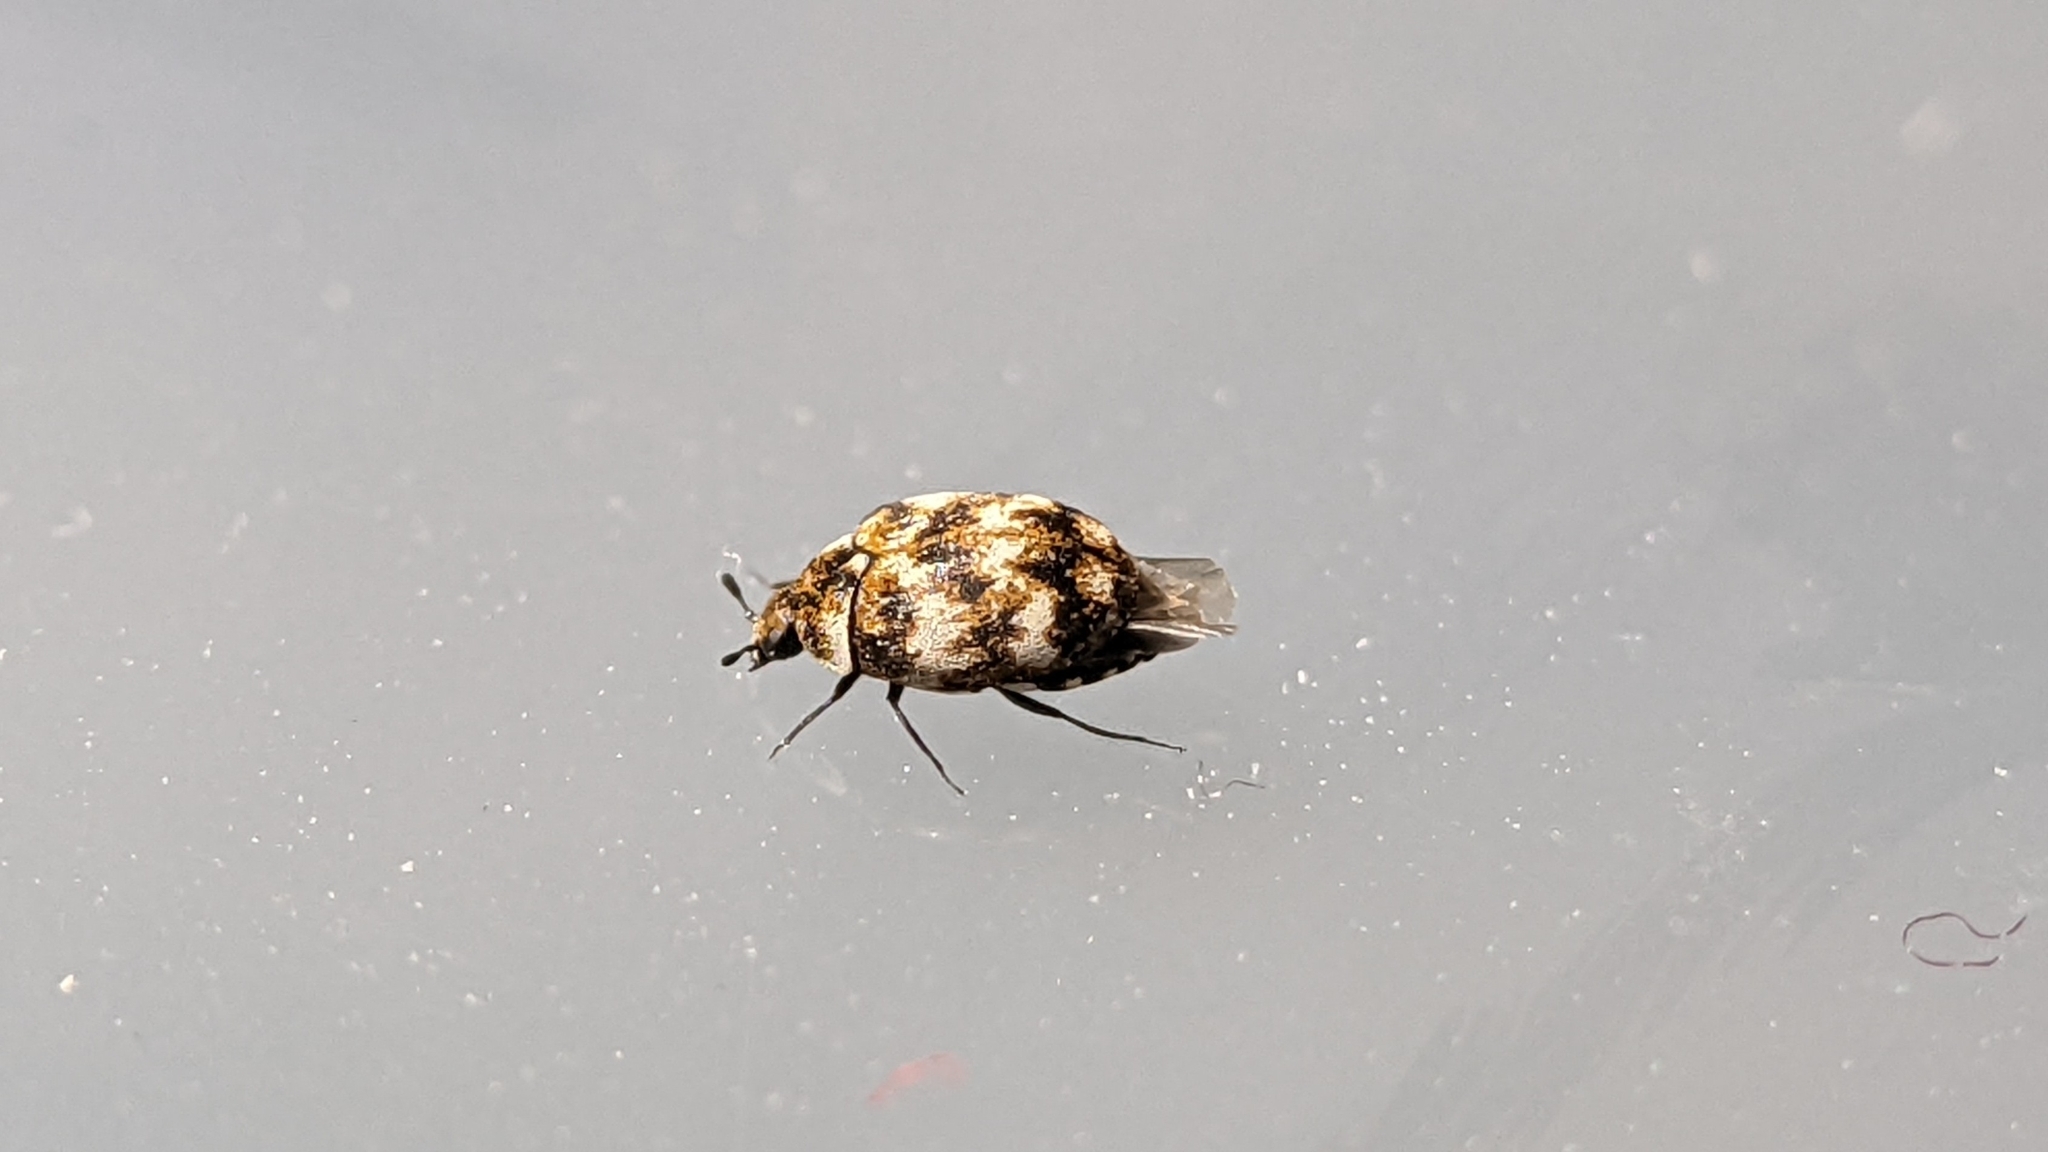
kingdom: Animalia
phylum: Arthropoda
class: Insecta
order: Coleoptera
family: Dermestidae
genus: Anthrenus
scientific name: Anthrenus verbasci
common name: Varied carpet beetle
